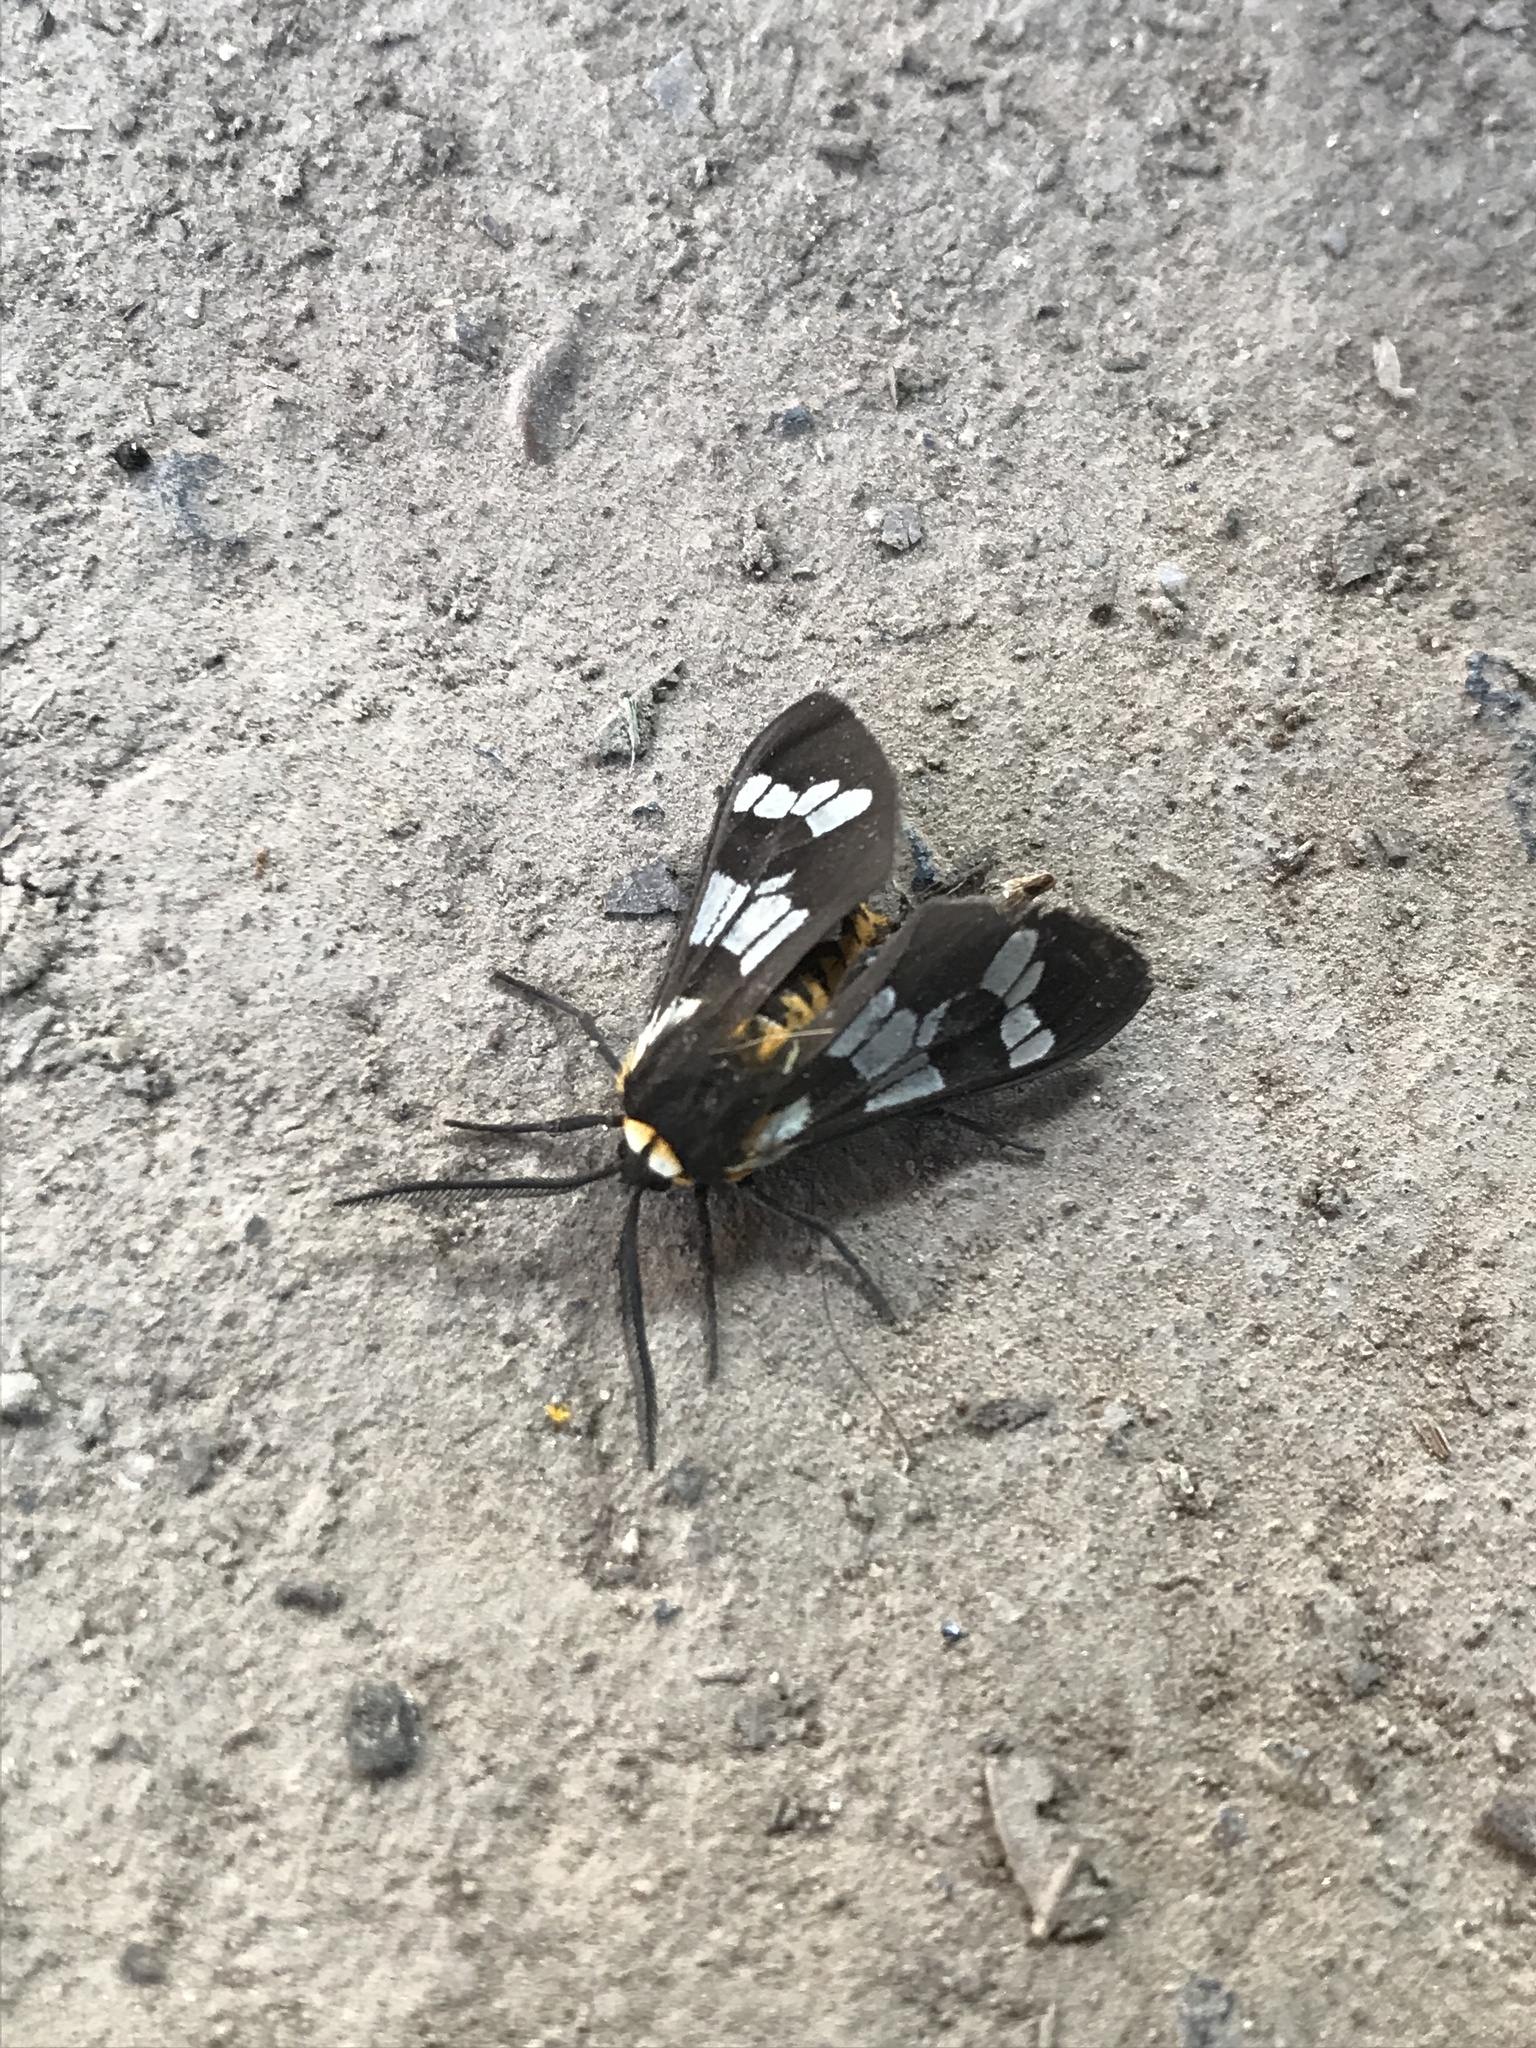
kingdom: Animalia
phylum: Arthropoda
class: Insecta
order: Lepidoptera
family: Erebidae
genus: Eurata
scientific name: Eurata
